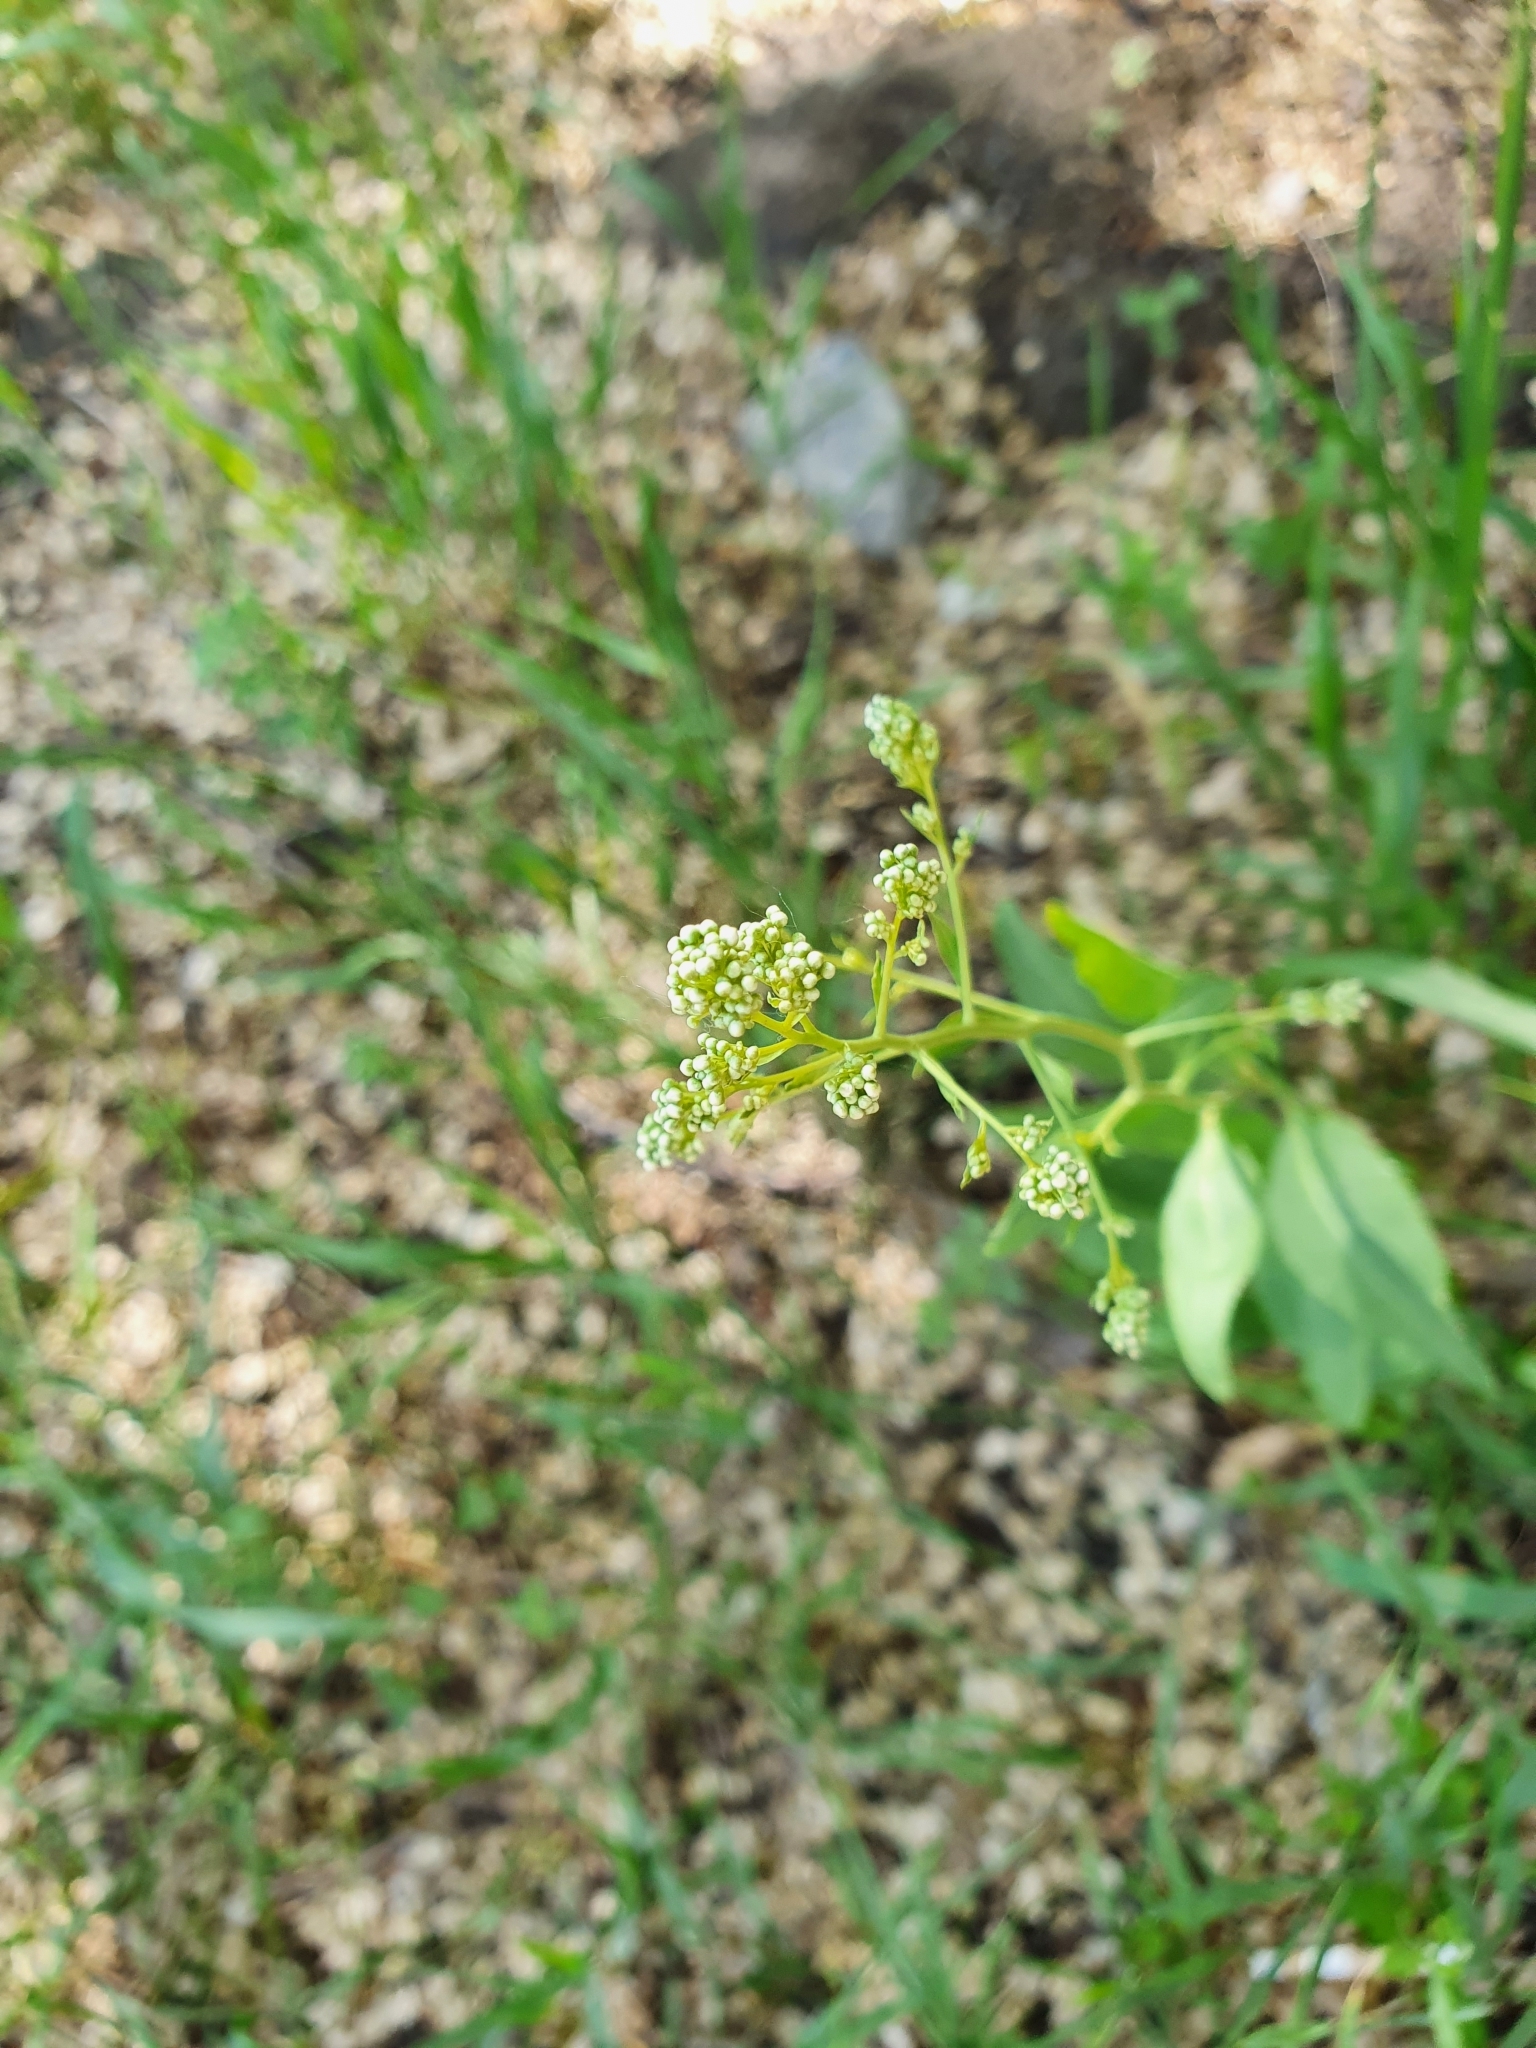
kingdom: Plantae
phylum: Tracheophyta
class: Magnoliopsida
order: Brassicales
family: Brassicaceae
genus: Lepidium
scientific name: Lepidium latifolium
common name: Dittander
